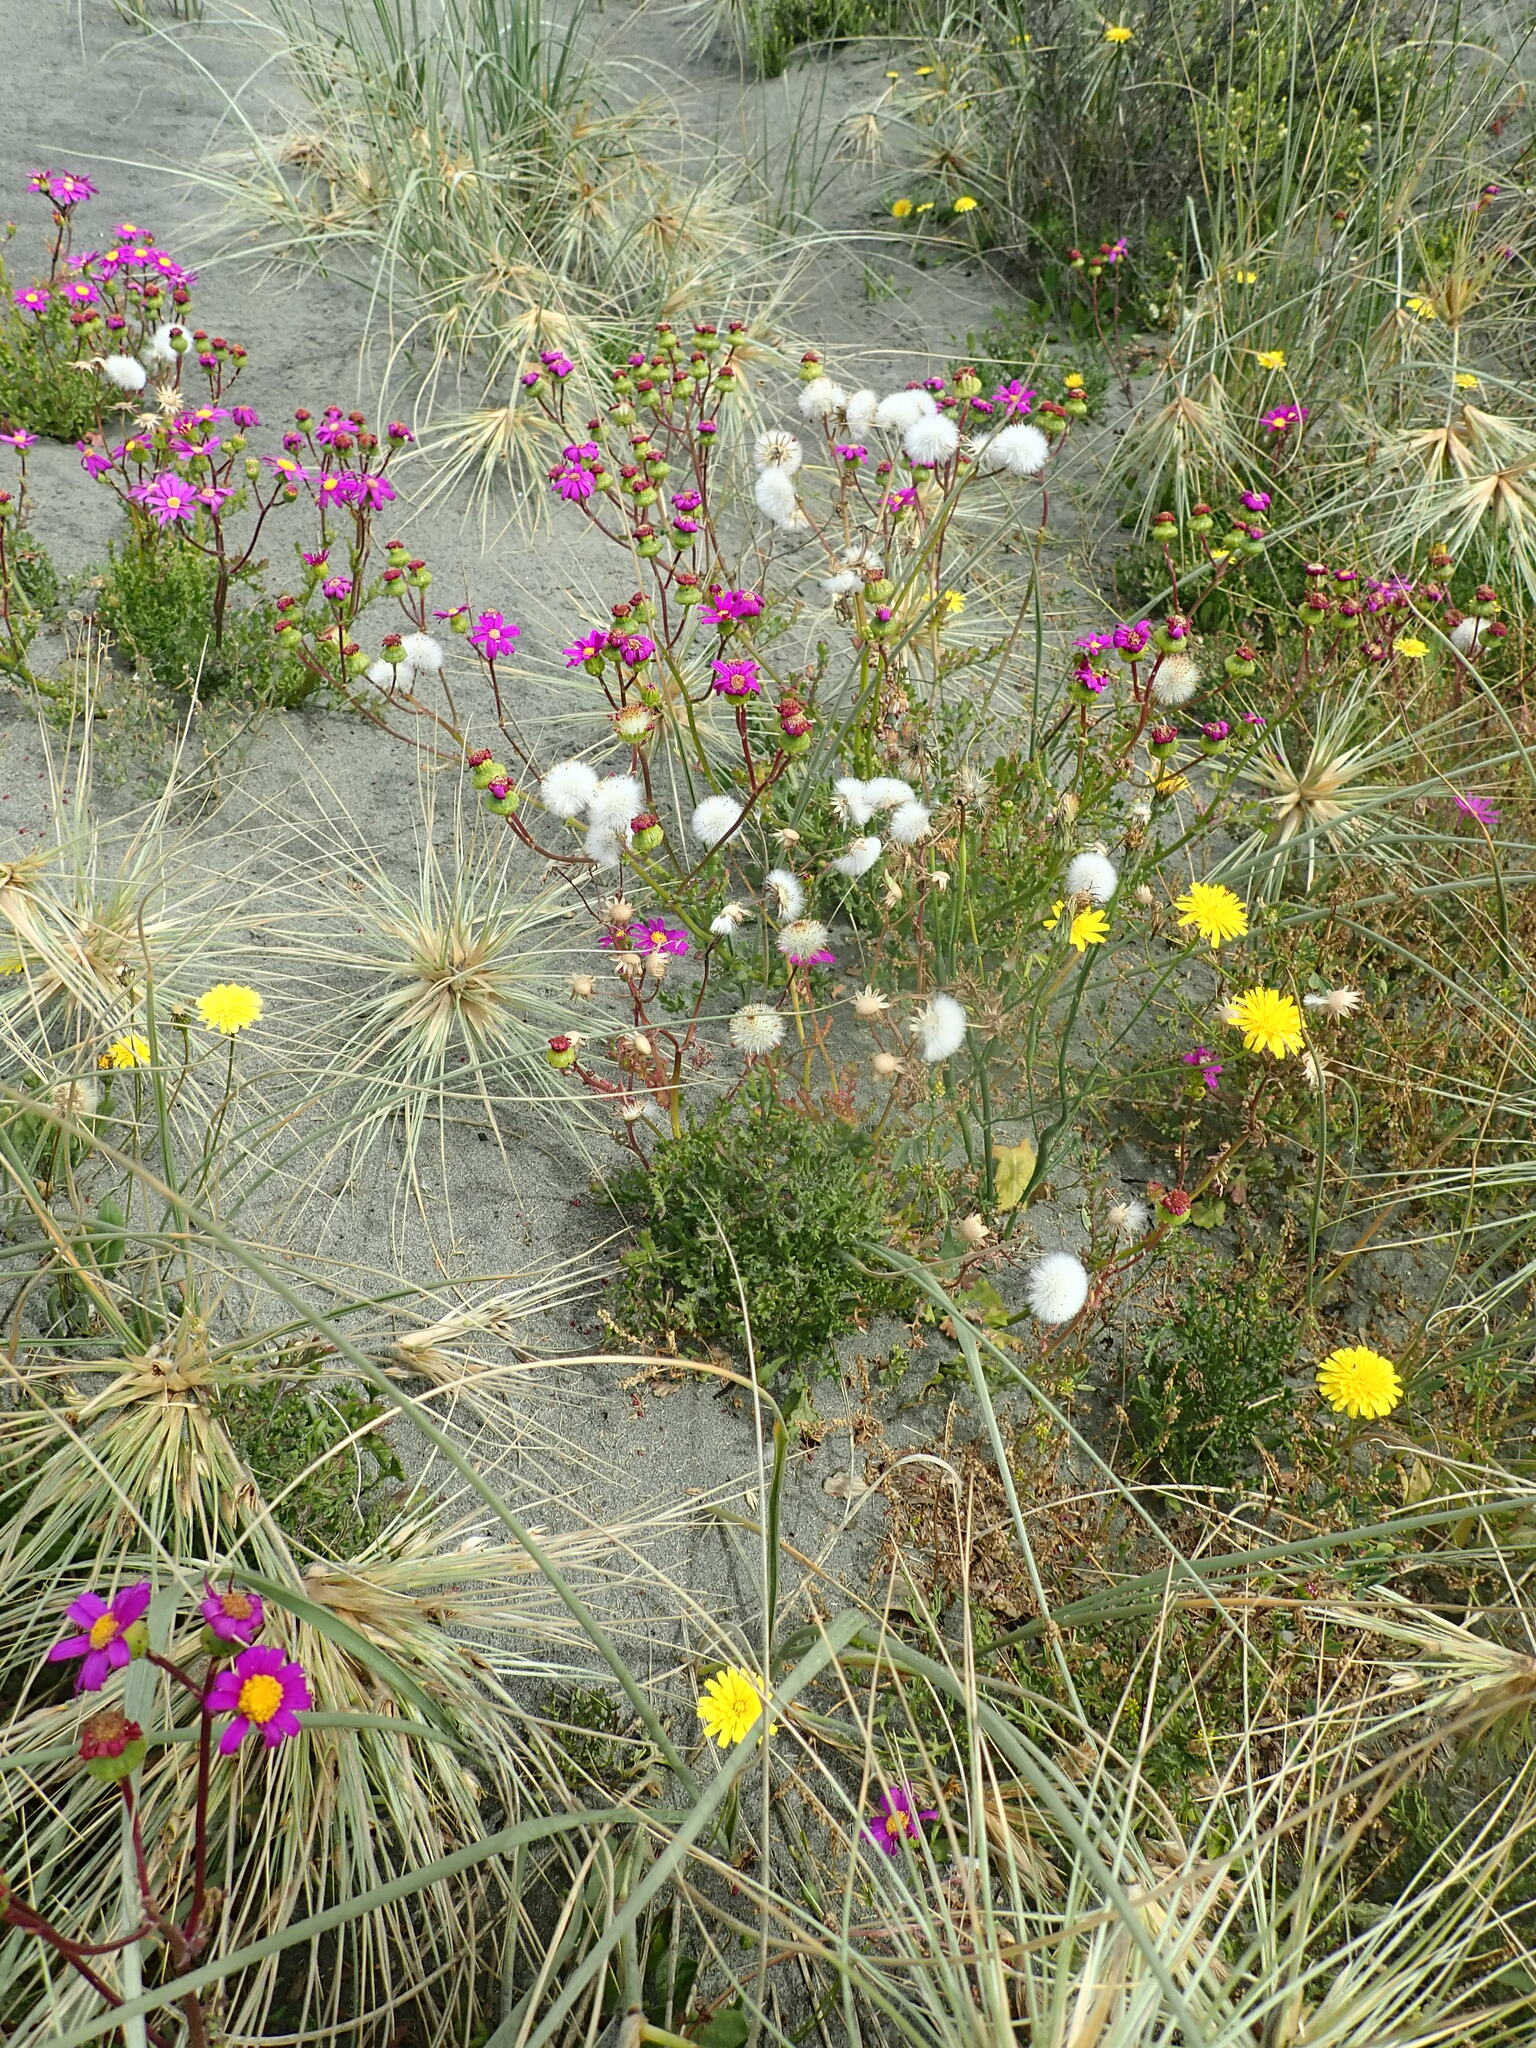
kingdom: Plantae
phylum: Tracheophyta
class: Magnoliopsida
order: Asterales
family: Asteraceae
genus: Senecio
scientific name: Senecio elegans
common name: Purple groundsel
